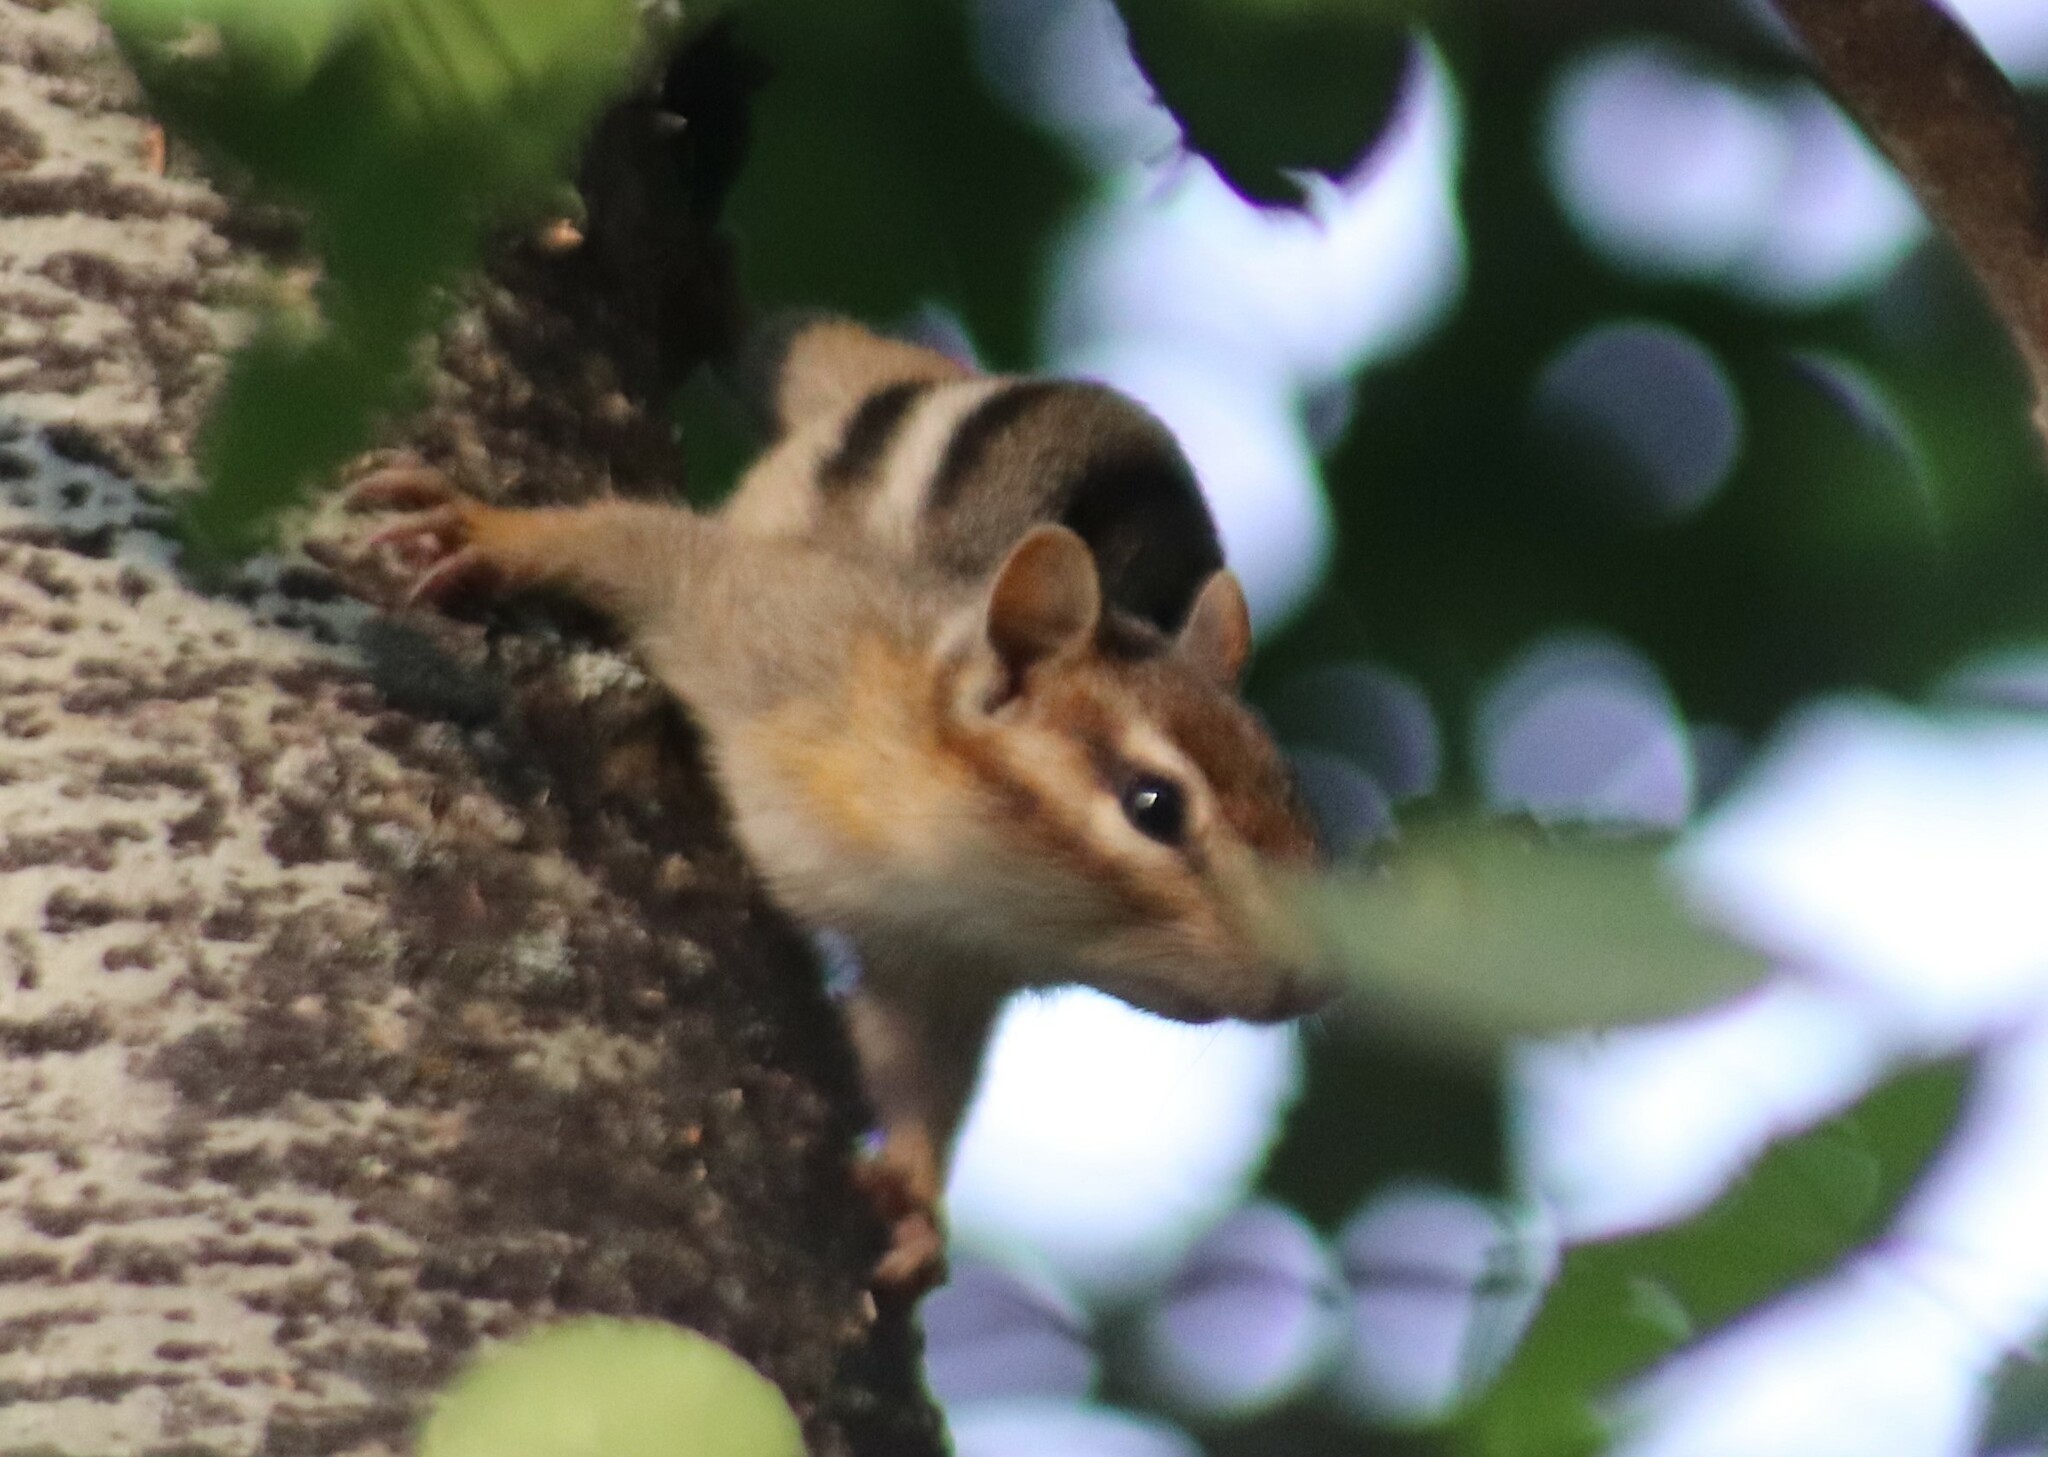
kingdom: Animalia
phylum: Chordata
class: Mammalia
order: Rodentia
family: Sciuridae
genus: Tamias
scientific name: Tamias striatus
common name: Eastern chipmunk
